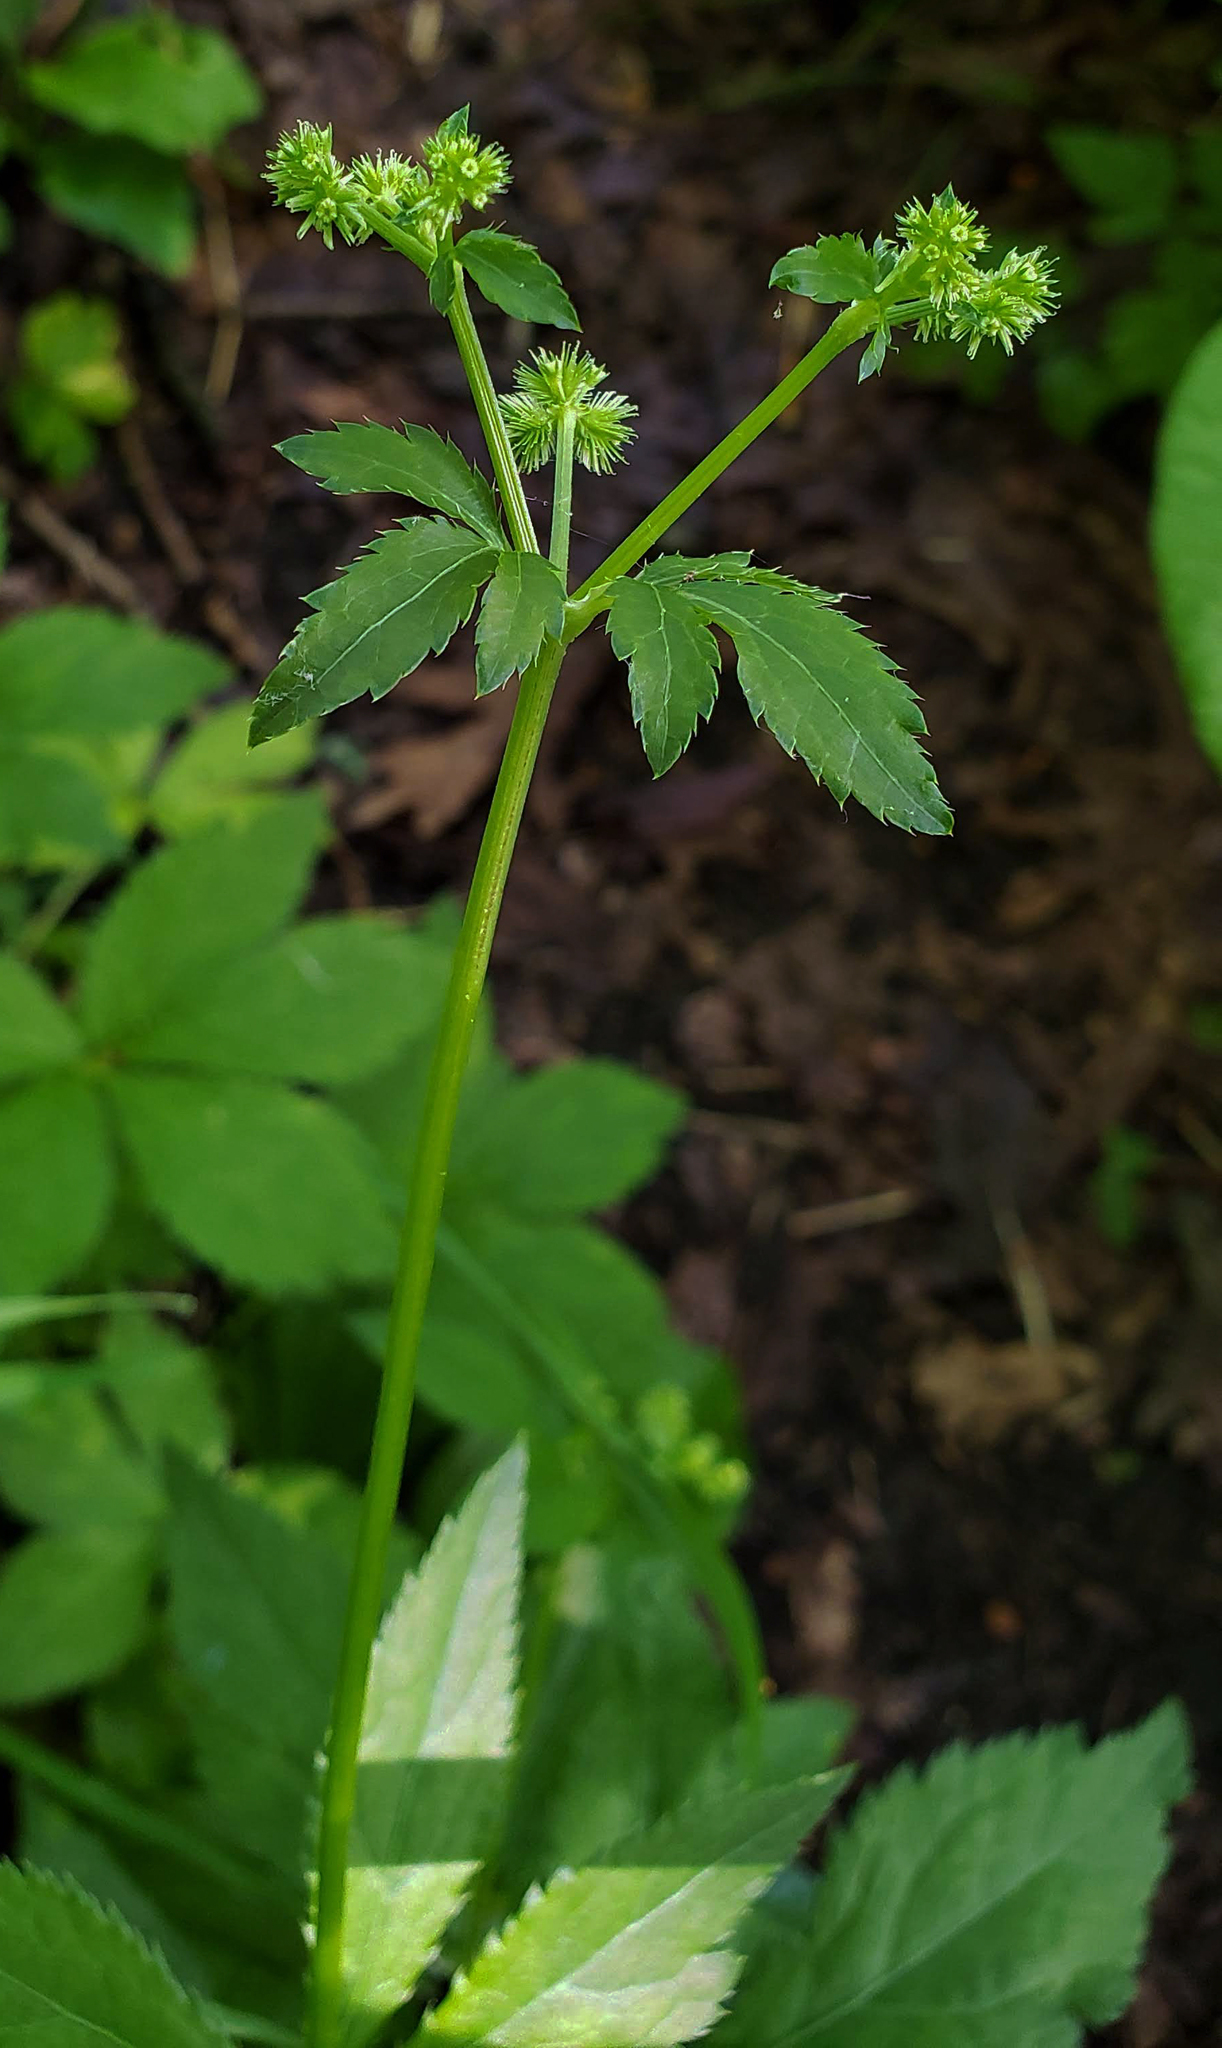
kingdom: Plantae
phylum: Tracheophyta
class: Magnoliopsida
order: Apiales
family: Apiaceae
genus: Sanicula
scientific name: Sanicula canadensis
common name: Canada sanicle
